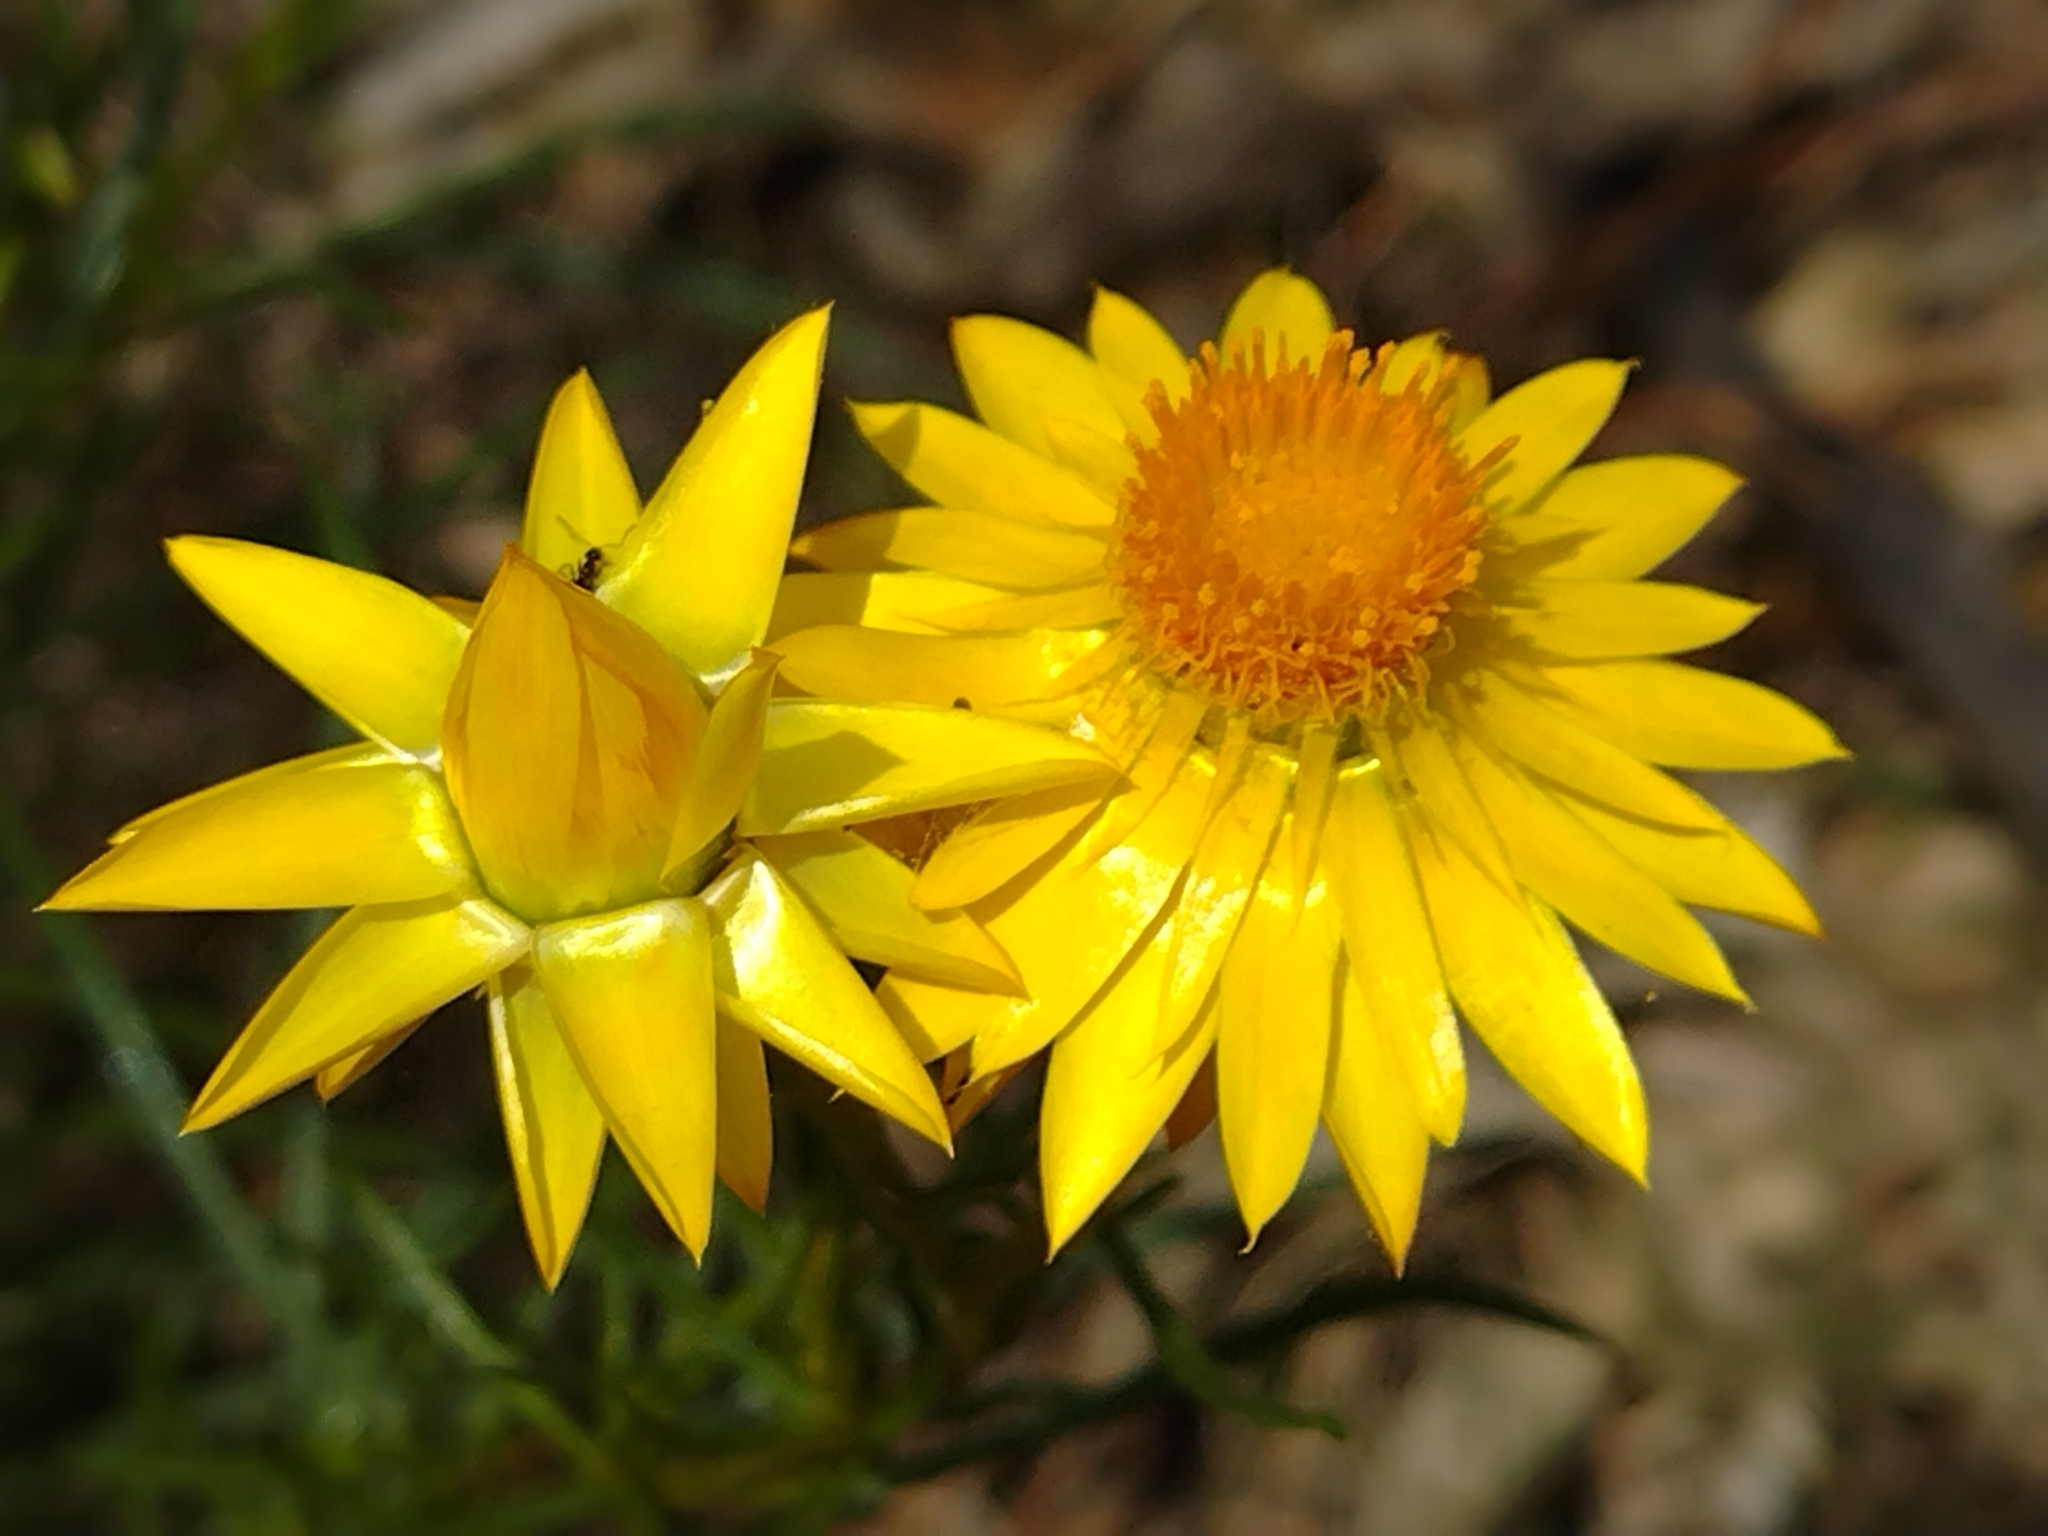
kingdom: Plantae
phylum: Tracheophyta
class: Magnoliopsida
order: Asterales
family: Asteraceae
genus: Xerochrysum
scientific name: Xerochrysum viscosum
